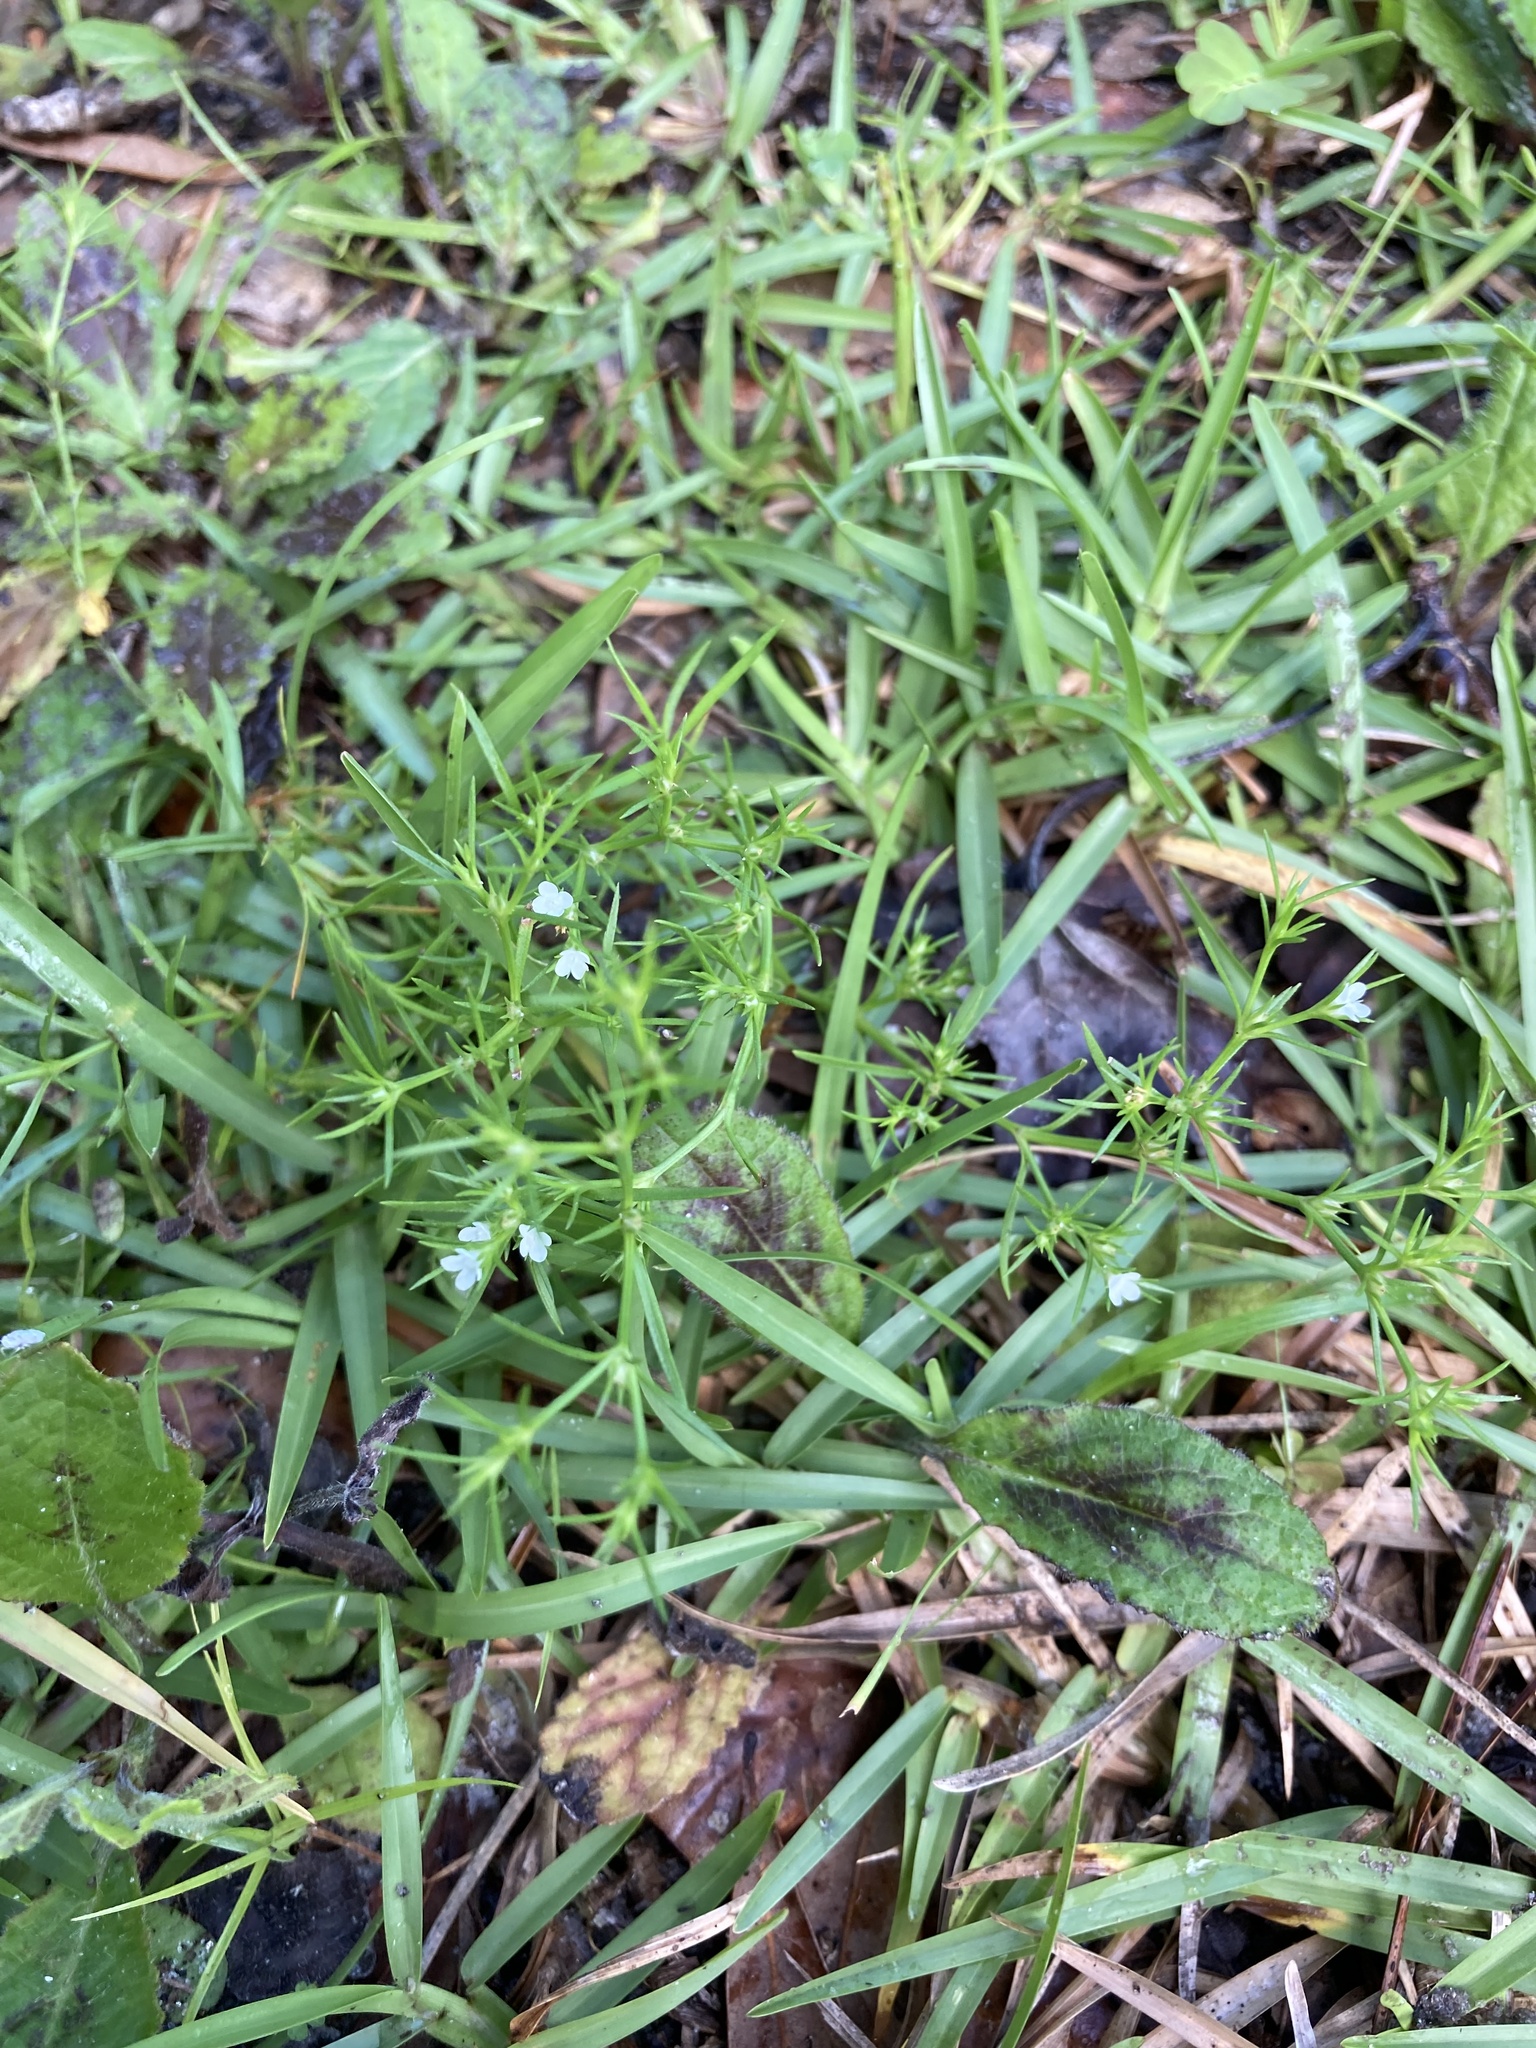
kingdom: Plantae
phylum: Tracheophyta
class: Magnoliopsida
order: Lamiales
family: Tetrachondraceae
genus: Polypremum
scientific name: Polypremum procumbens
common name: Juniper-leaf
